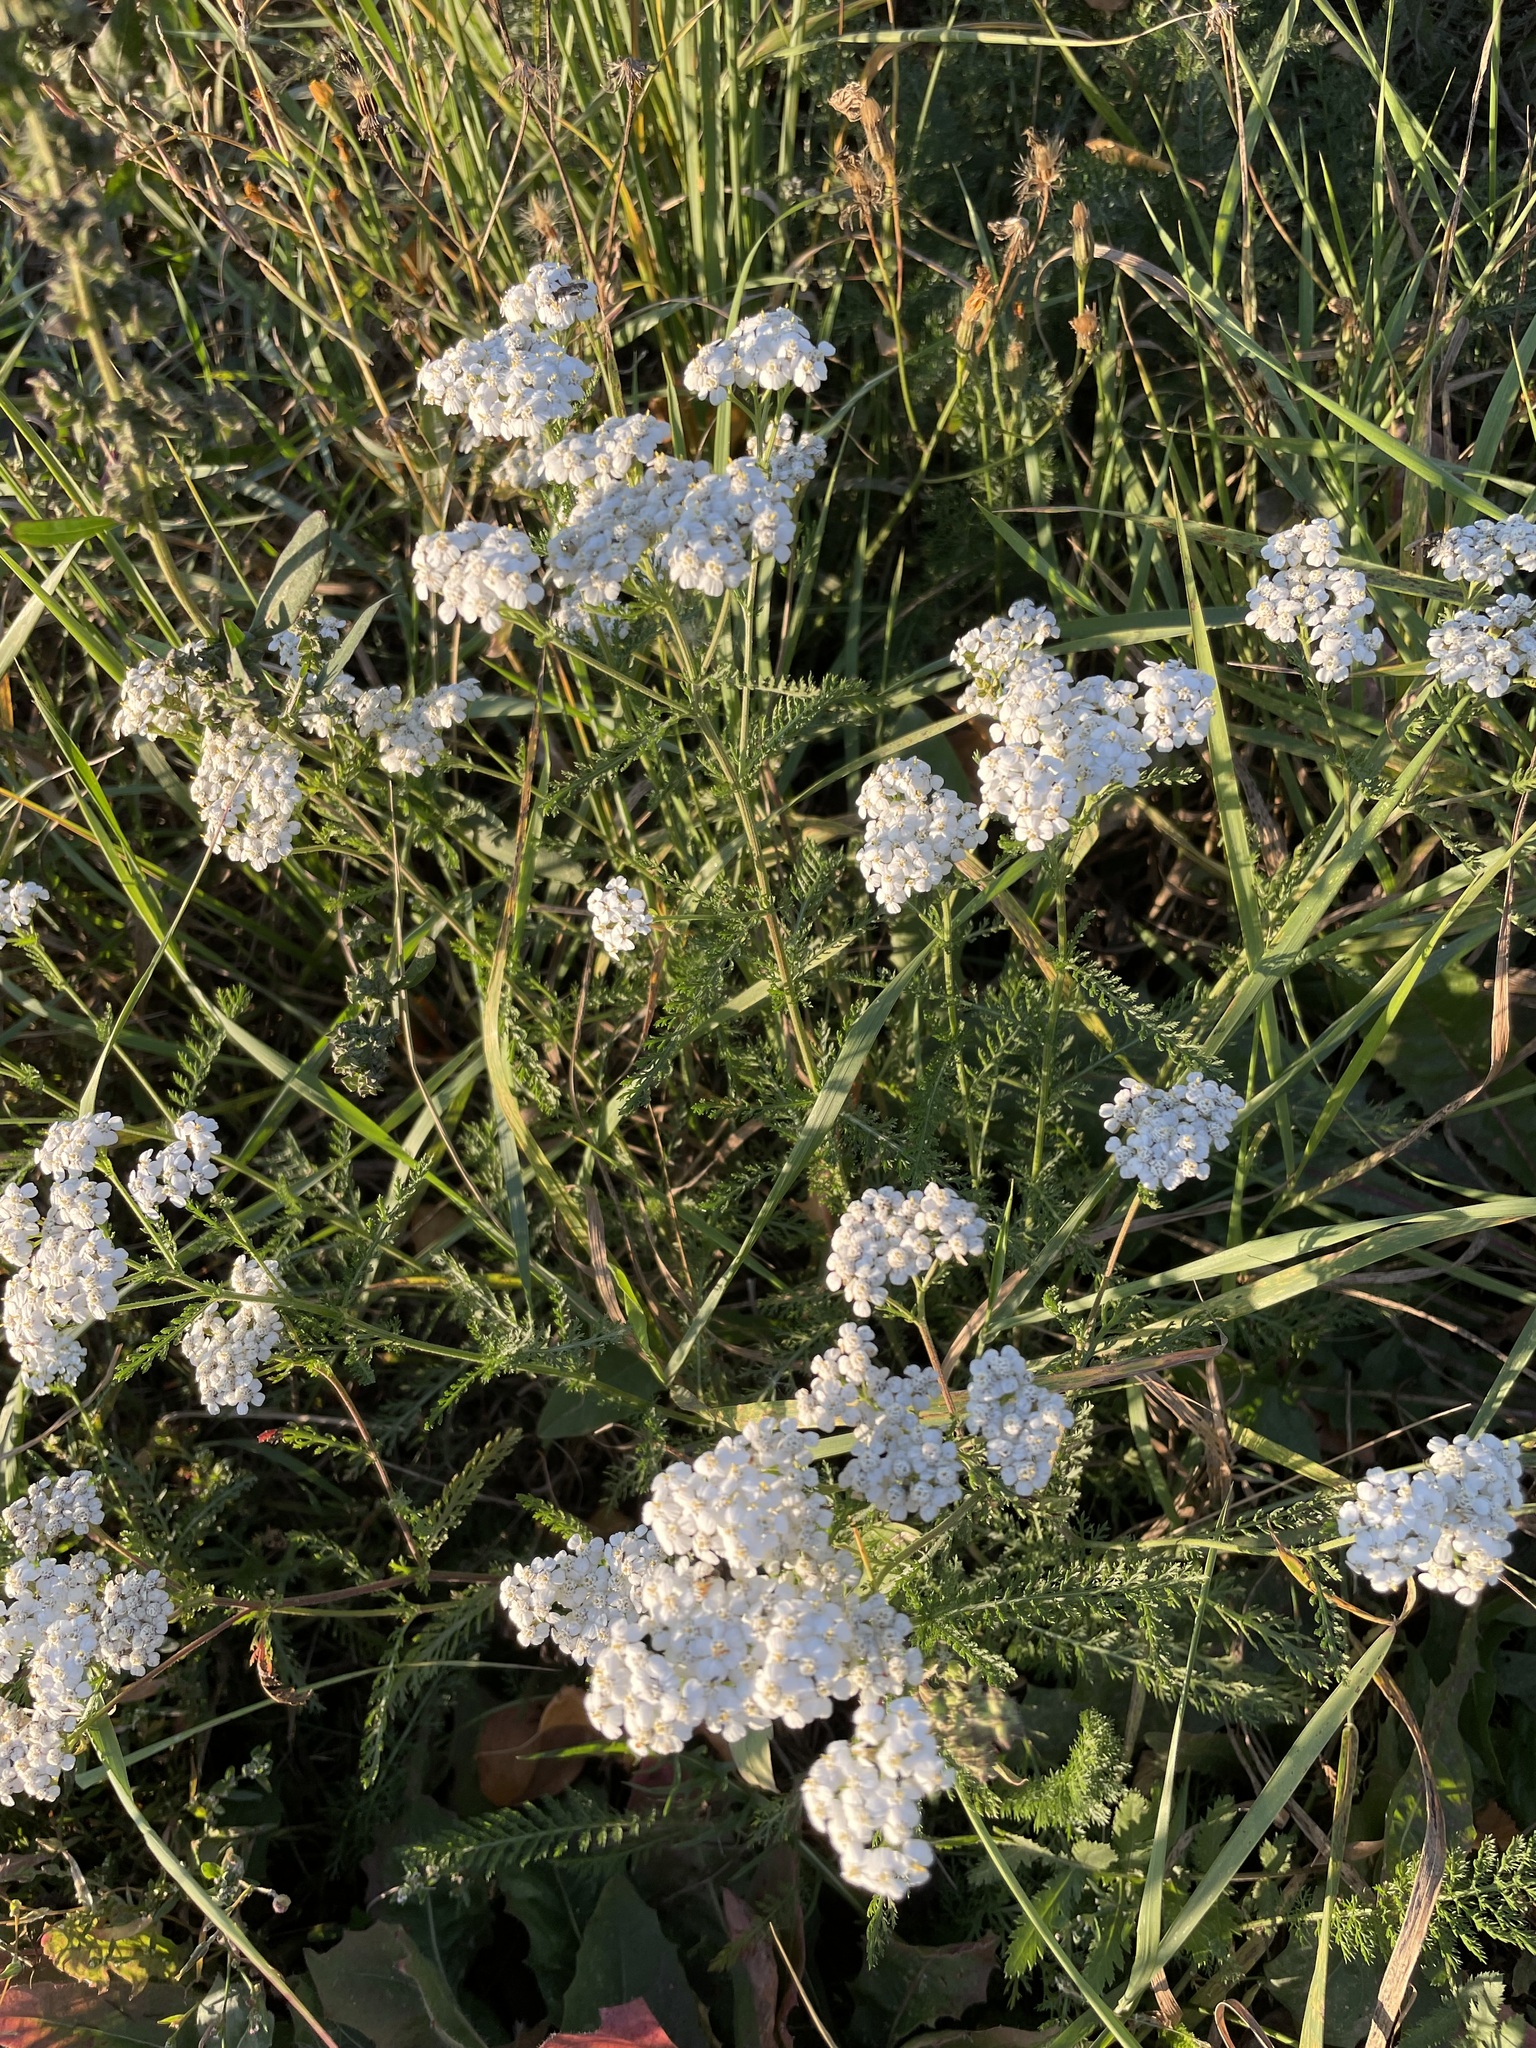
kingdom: Plantae
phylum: Tracheophyta
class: Magnoliopsida
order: Asterales
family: Asteraceae
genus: Achillea
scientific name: Achillea millefolium
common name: Yarrow
